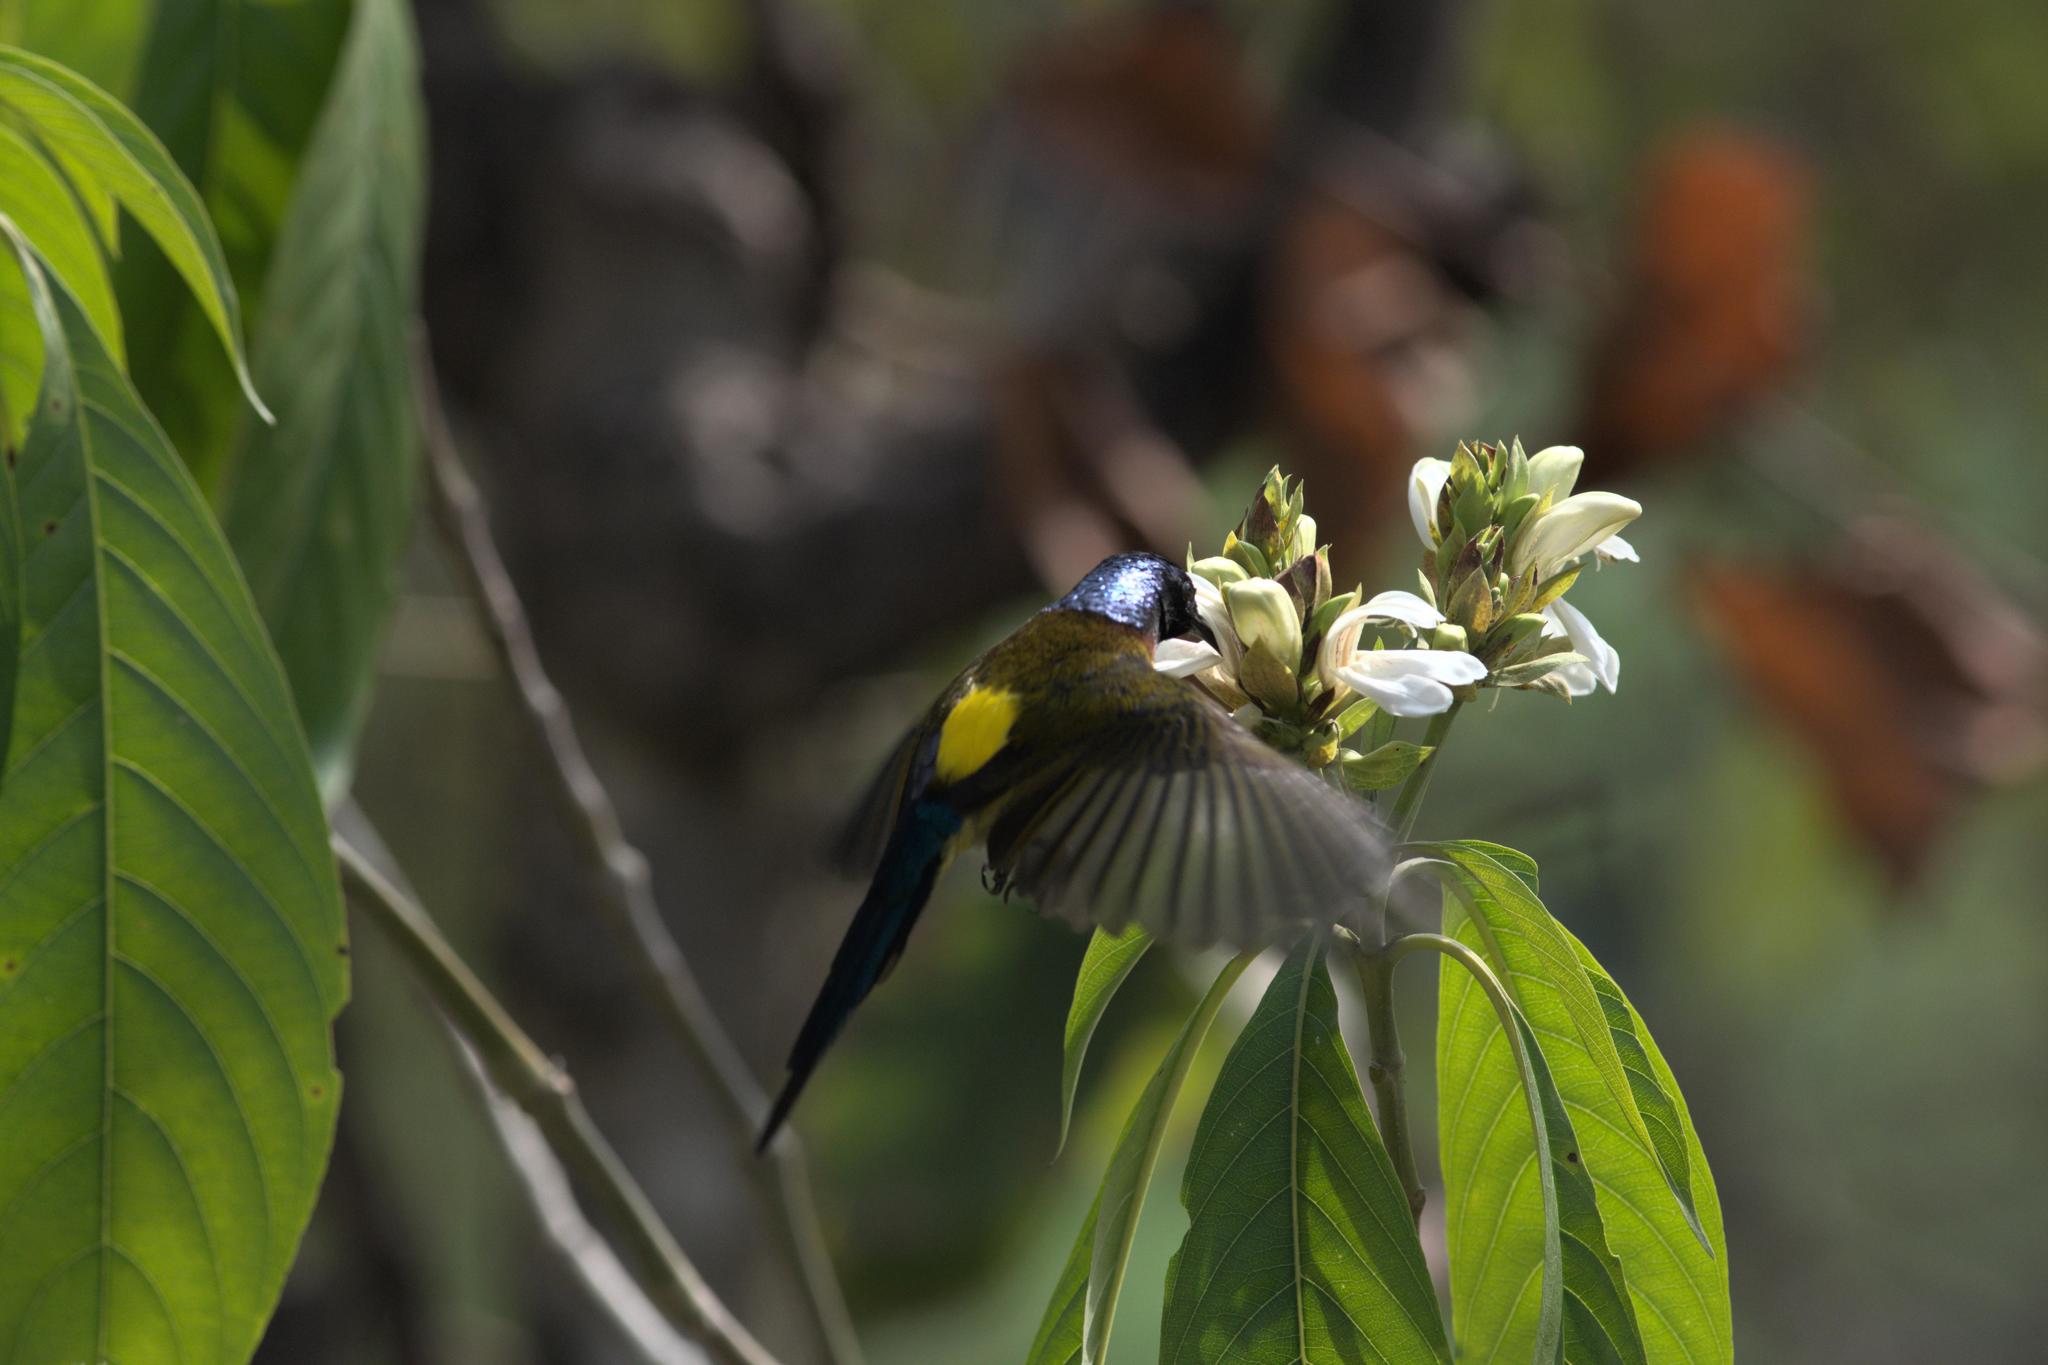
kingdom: Animalia
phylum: Chordata
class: Aves
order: Passeriformes
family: Nectariniidae
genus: Aethopyga
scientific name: Aethopyga nipalensis
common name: Green-tailed sunbird
